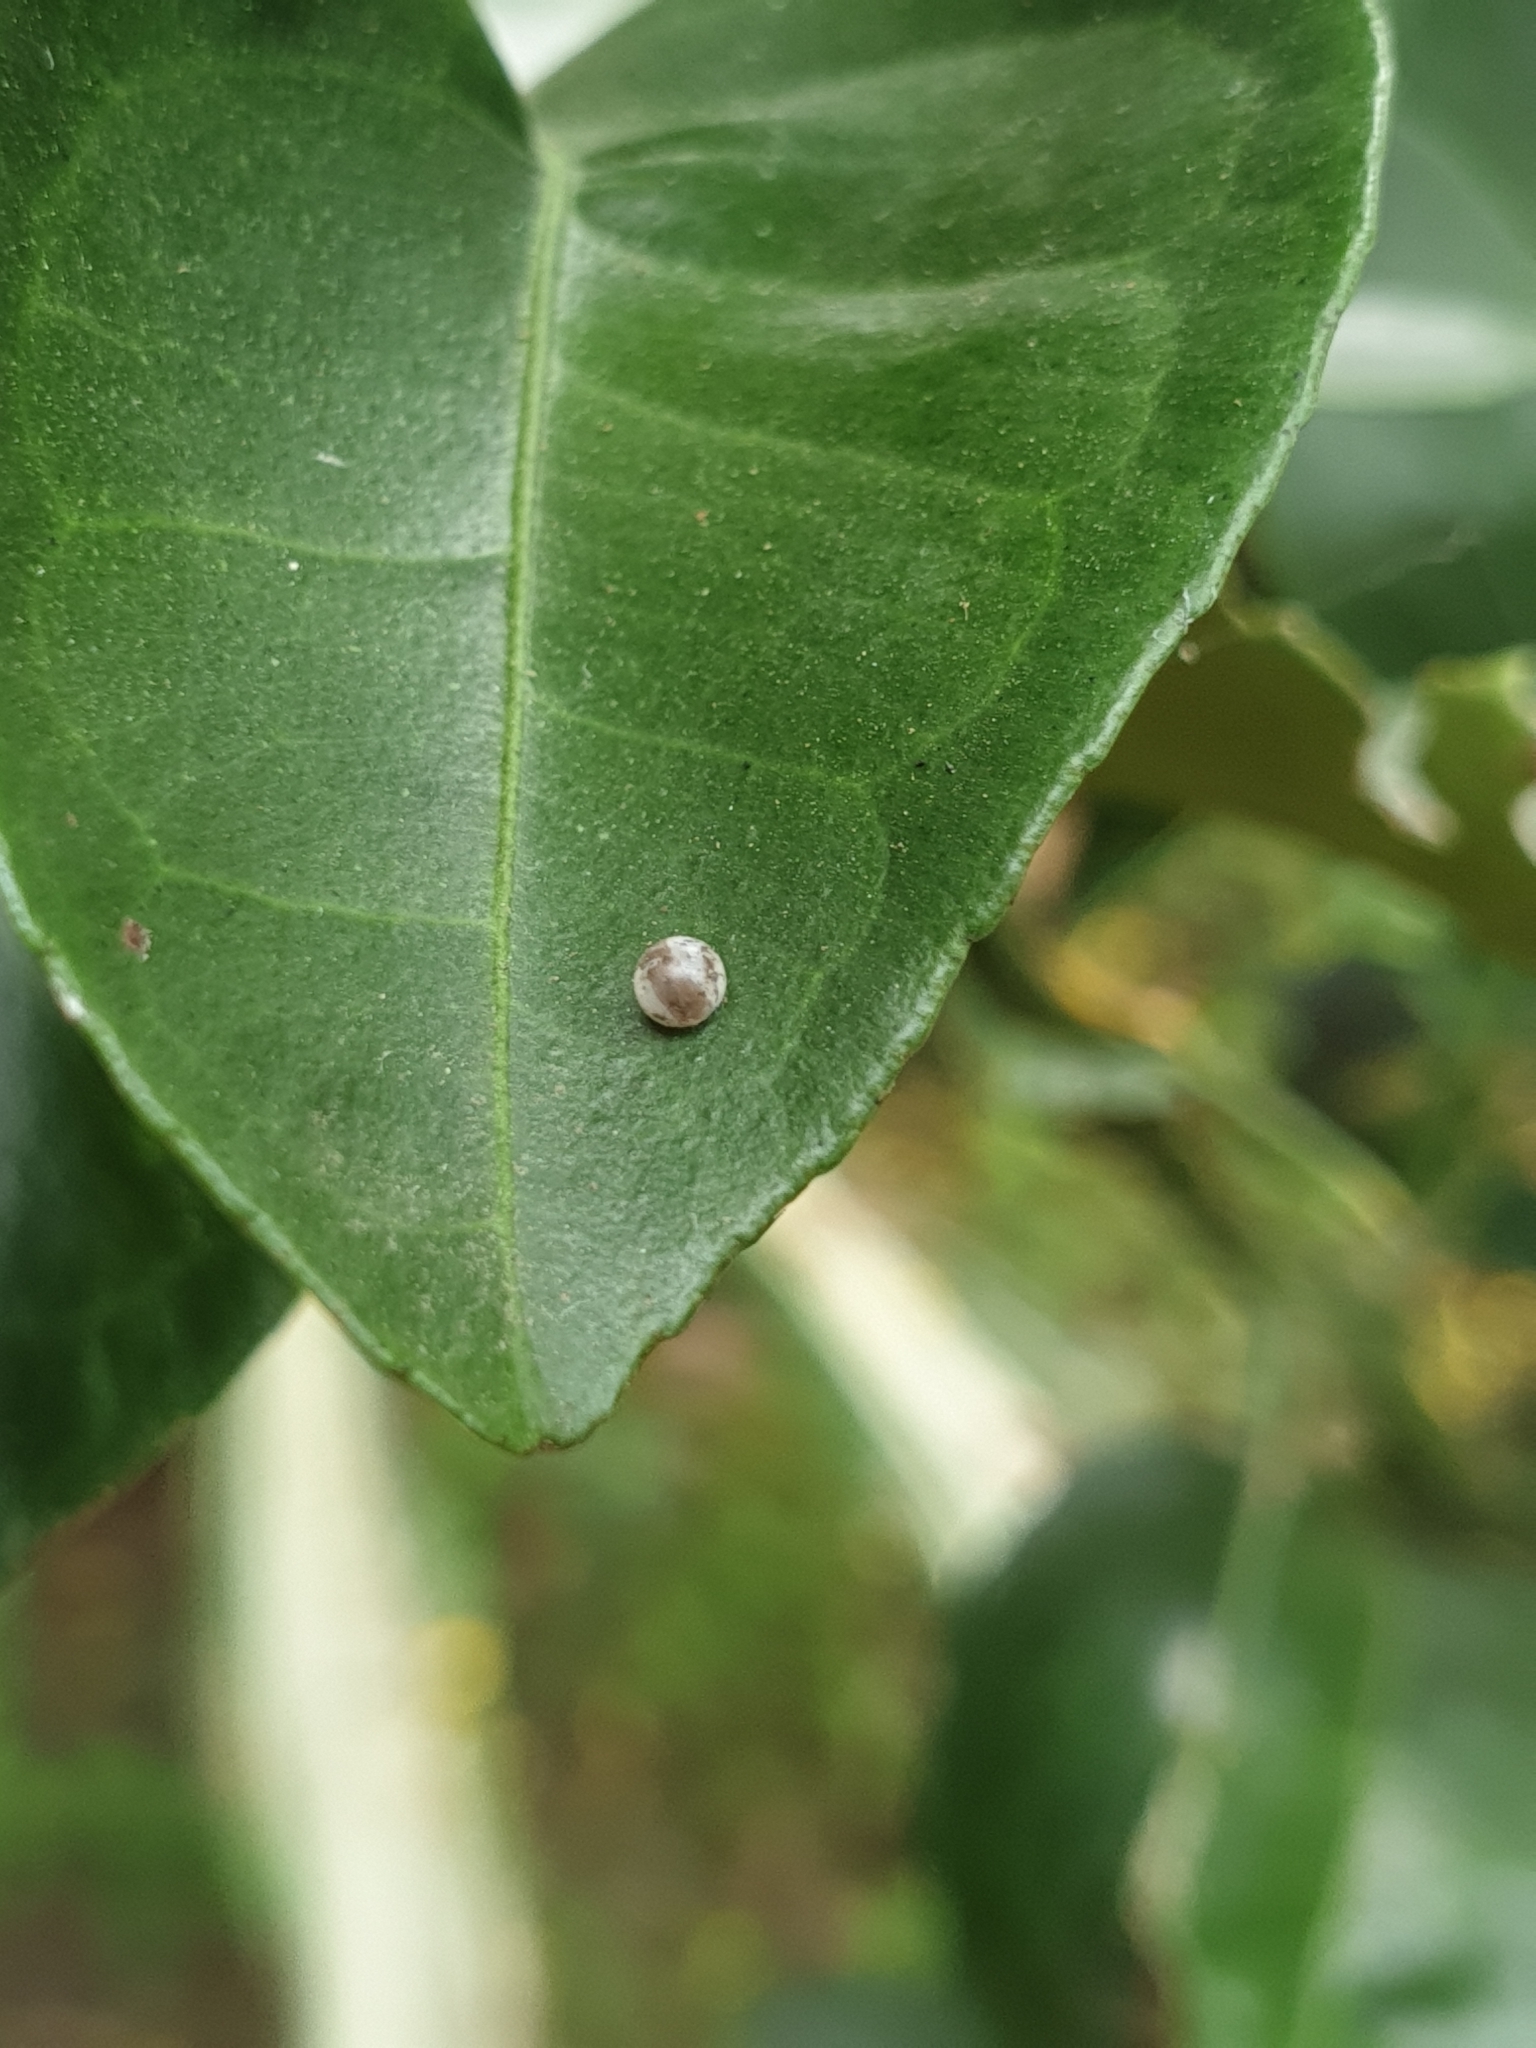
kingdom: Animalia
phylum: Arthropoda
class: Insecta
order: Lepidoptera
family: Papilionidae
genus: Papilio
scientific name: Papilio polytes
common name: Common mormon
